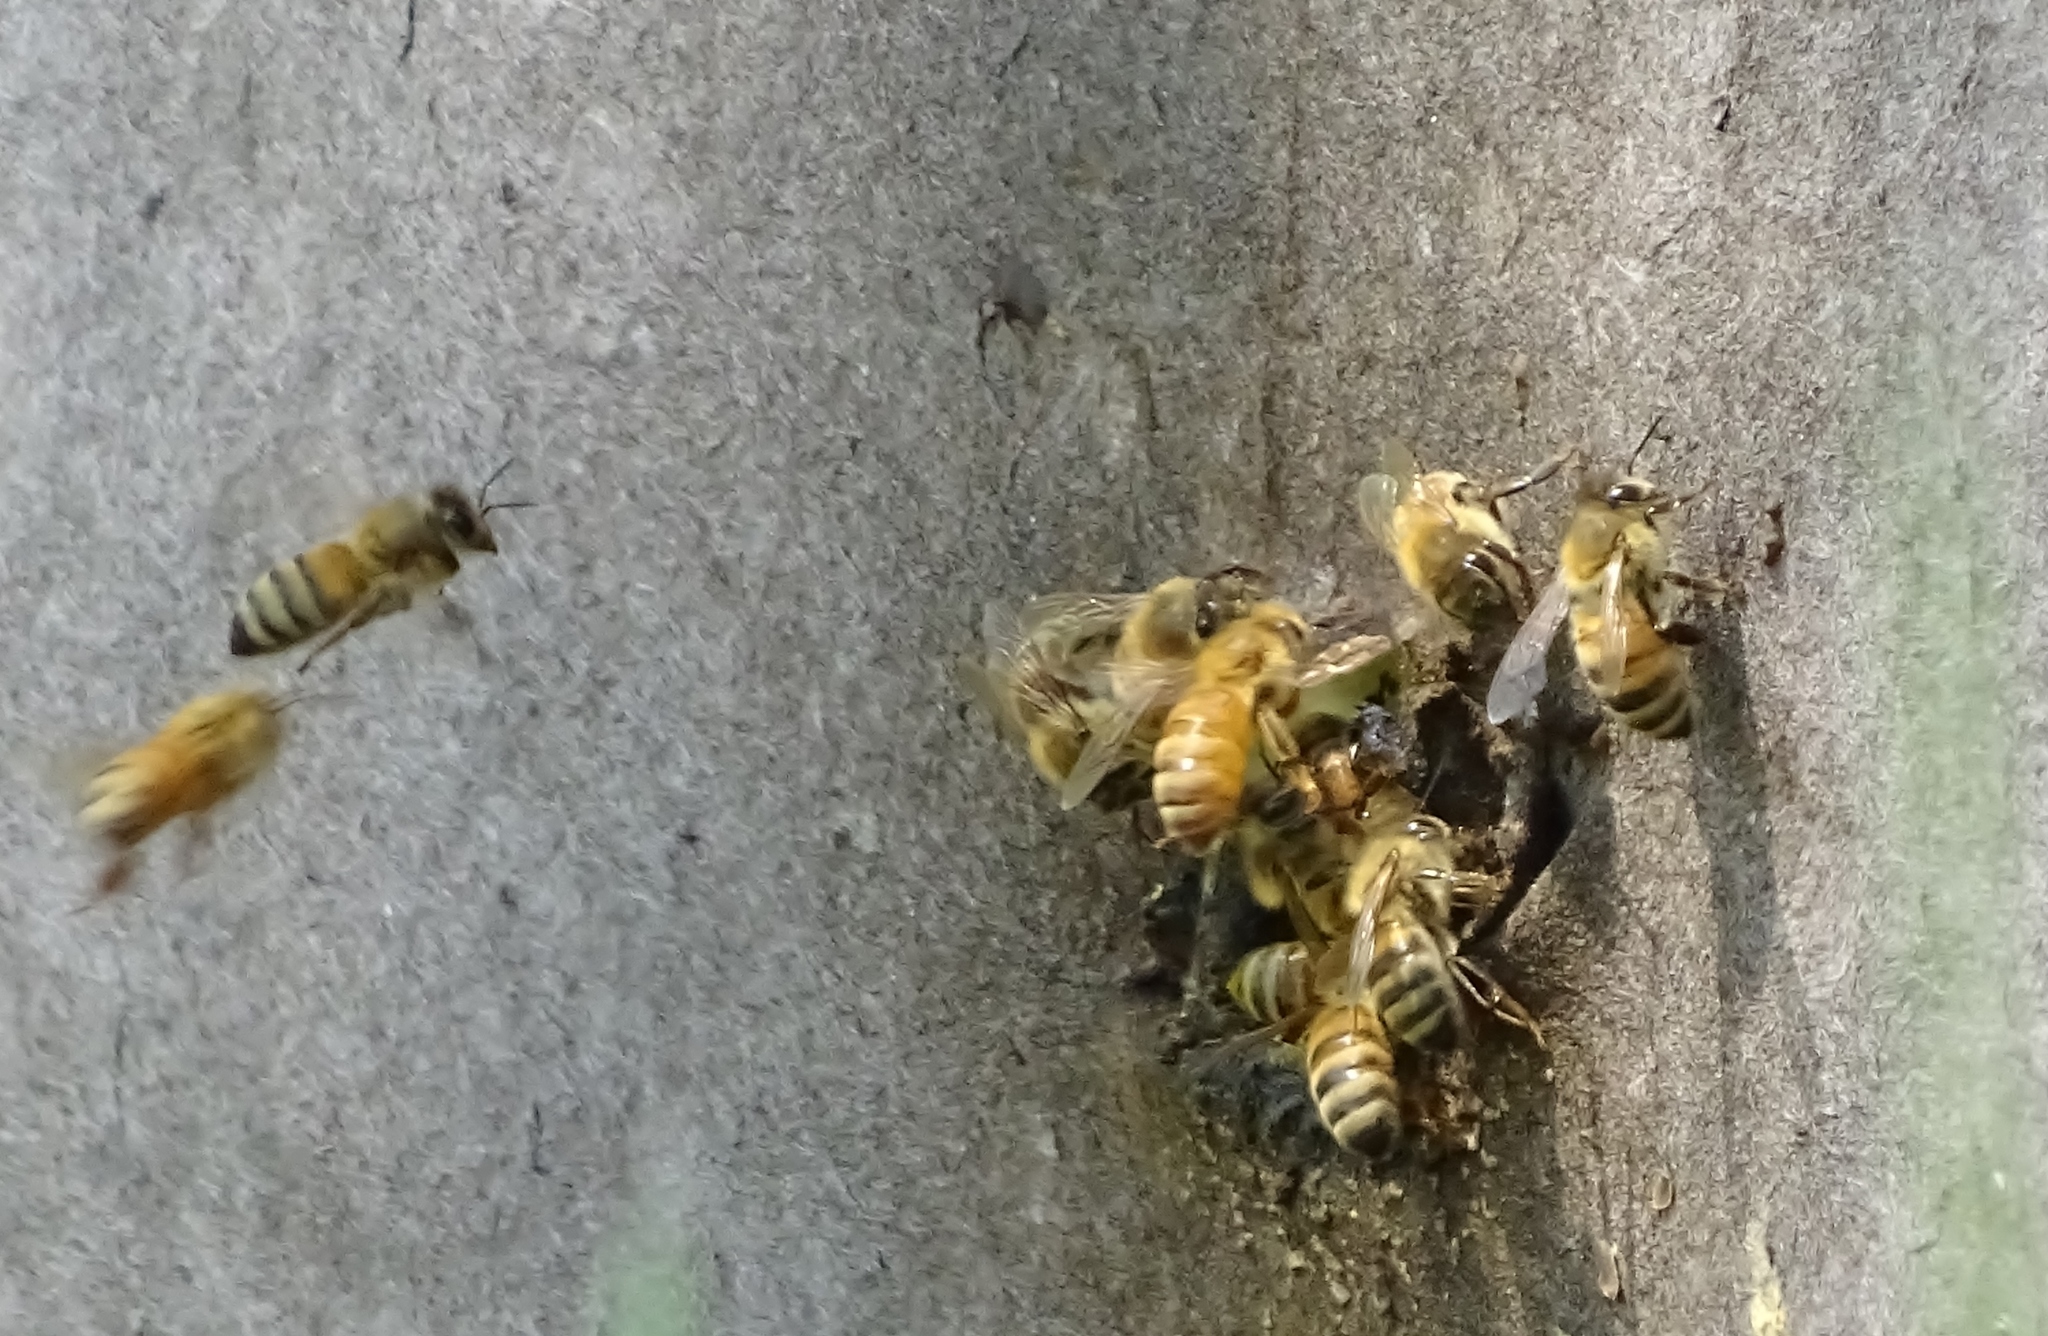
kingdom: Animalia
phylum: Arthropoda
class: Insecta
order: Hymenoptera
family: Apidae
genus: Apis
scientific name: Apis mellifera
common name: Honey bee
